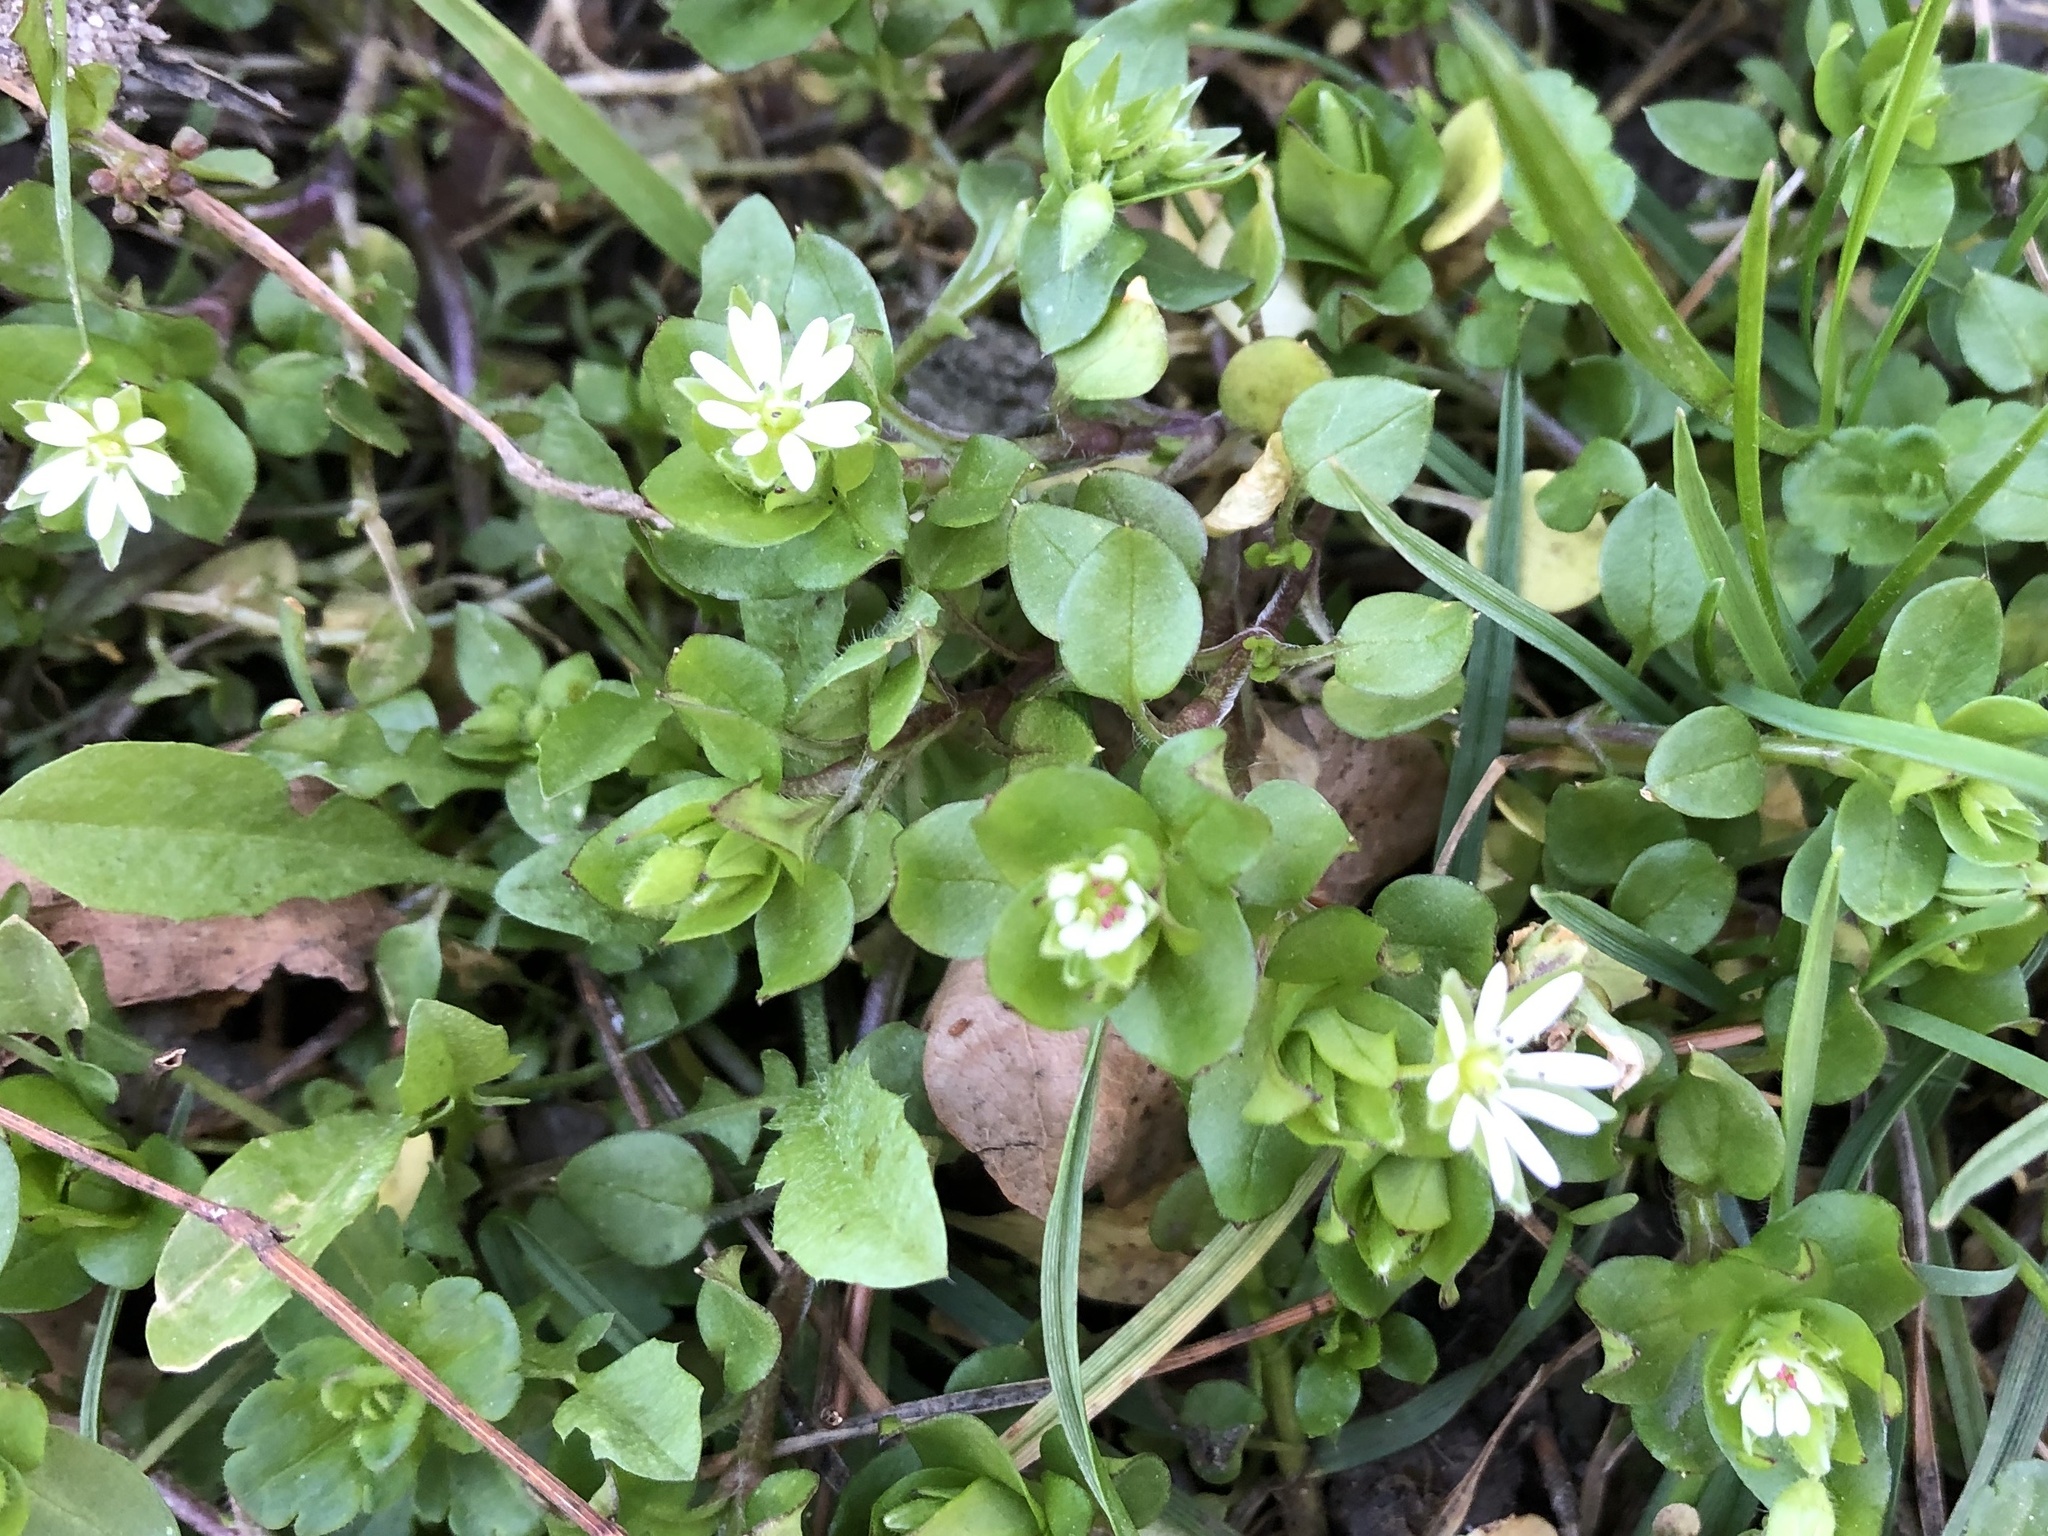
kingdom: Plantae
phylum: Tracheophyta
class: Magnoliopsida
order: Caryophyllales
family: Caryophyllaceae
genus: Stellaria
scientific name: Stellaria media
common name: Common chickweed
